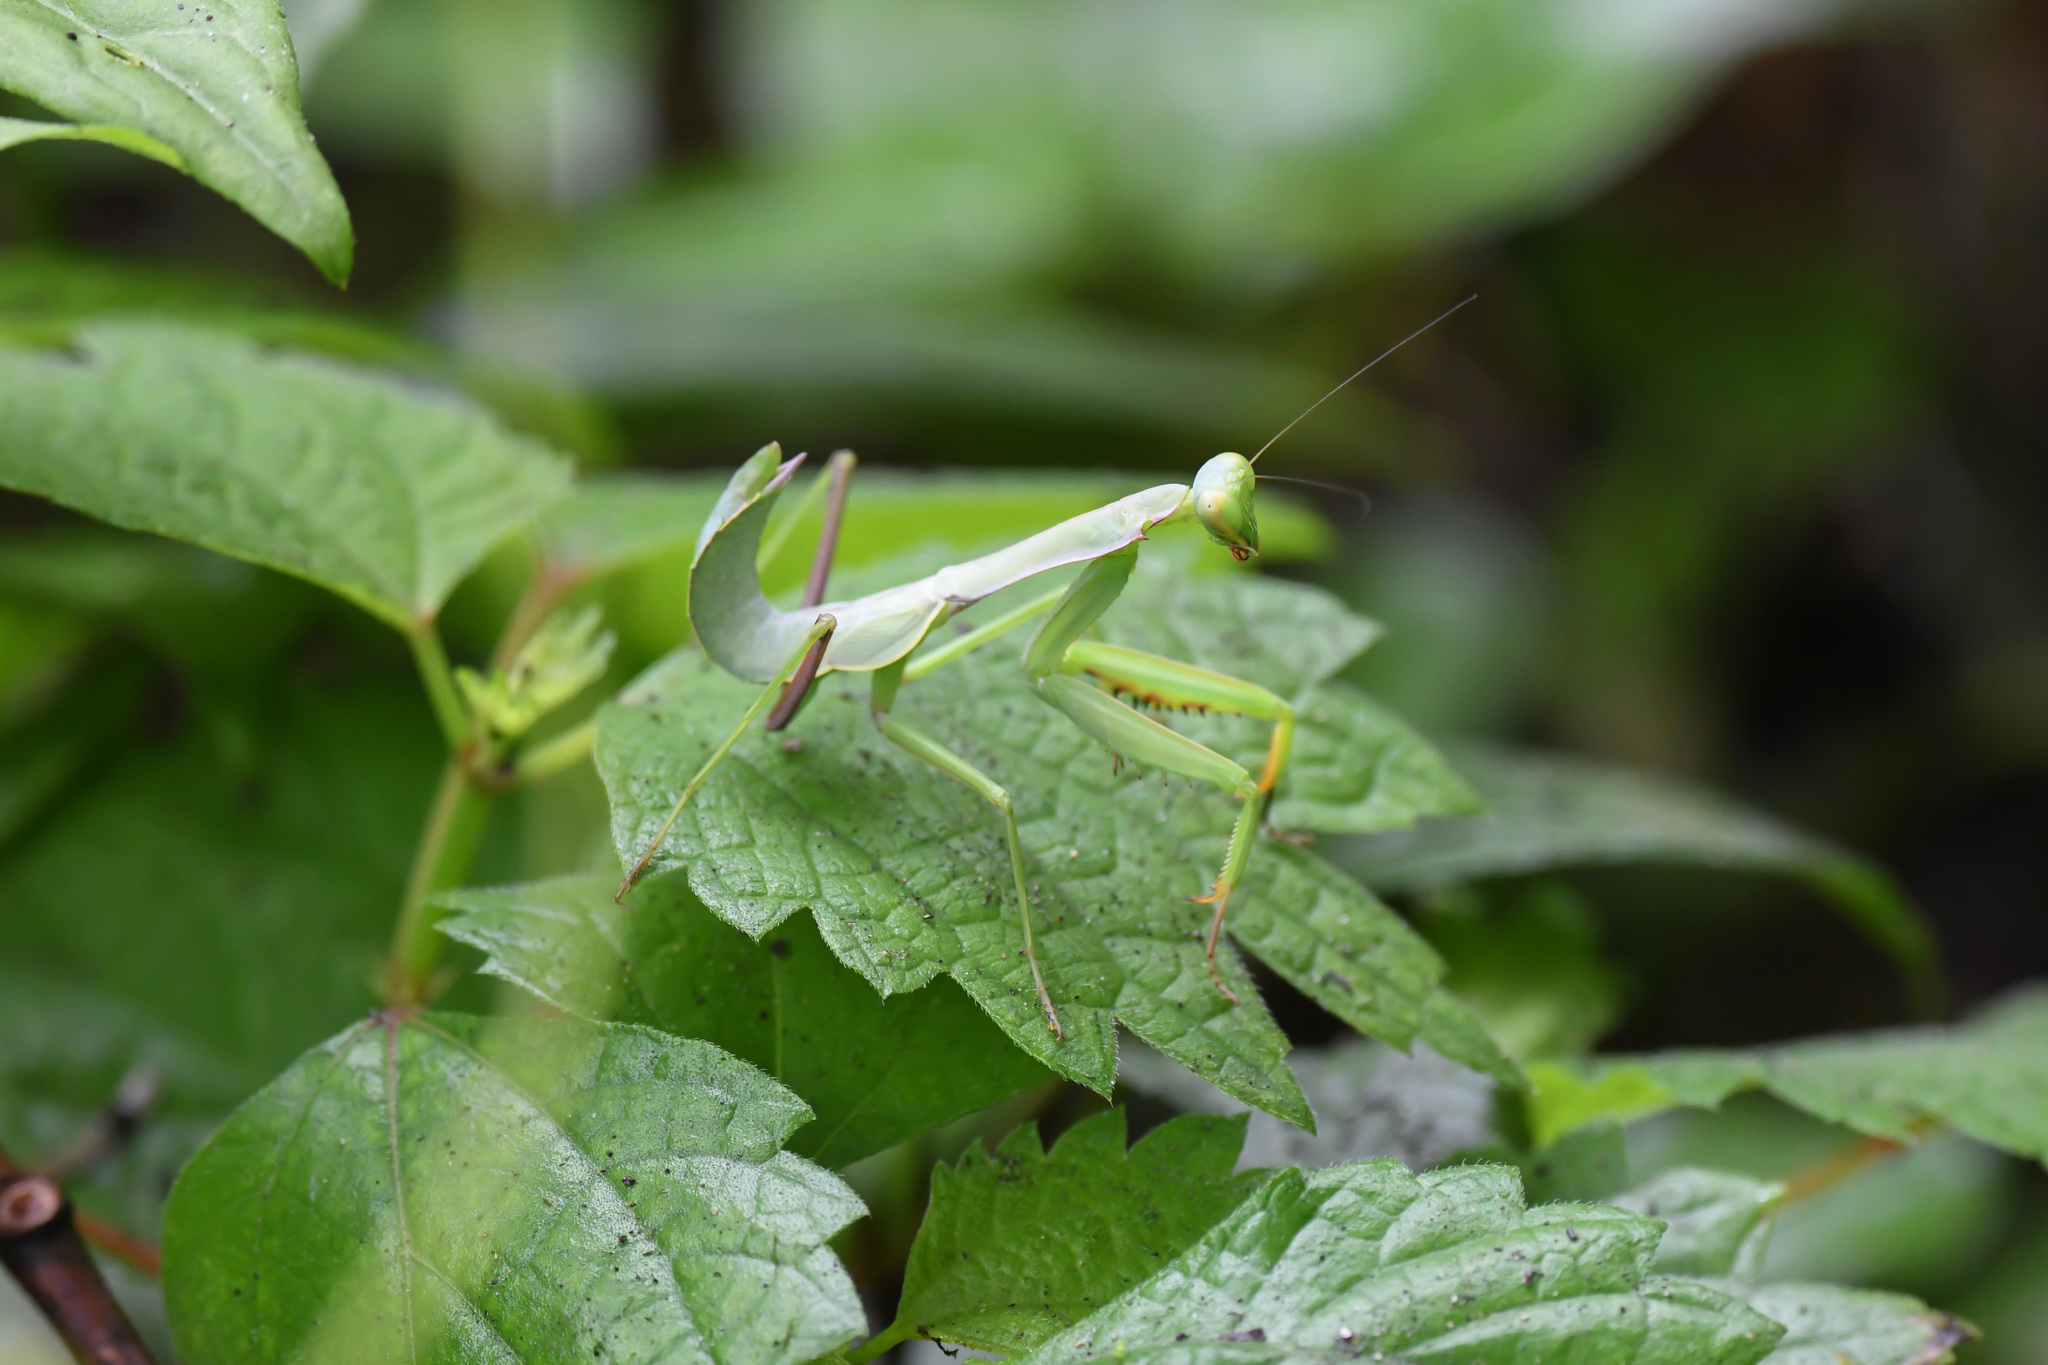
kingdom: Animalia
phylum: Arthropoda
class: Insecta
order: Mantodea
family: Mantidae
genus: Hierodula
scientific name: Hierodula chinensis
